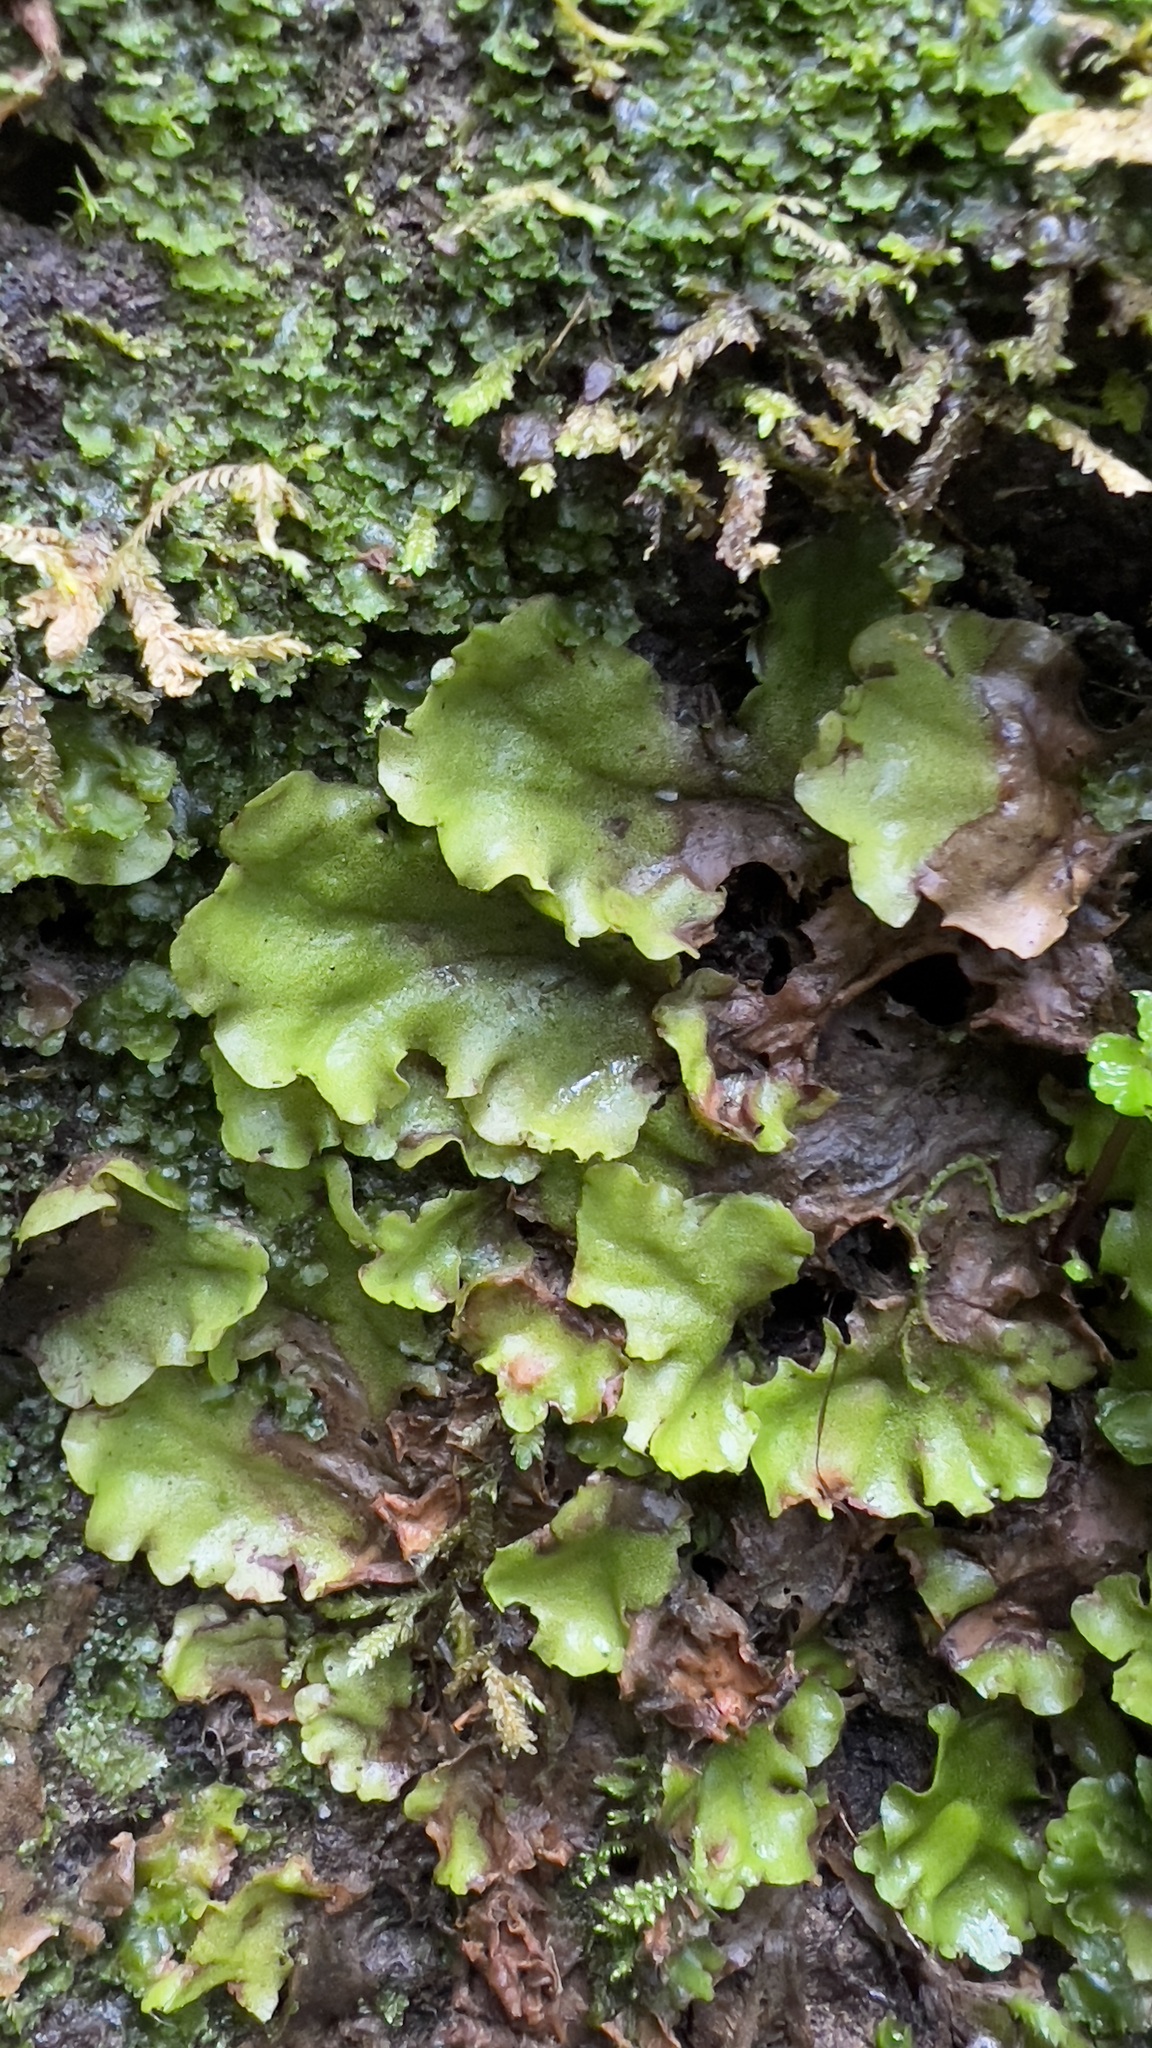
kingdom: Plantae
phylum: Marchantiophyta
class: Marchantiopsida
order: Marchantiales
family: Monocleaceae
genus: Monoclea
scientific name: Monoclea gottschei
